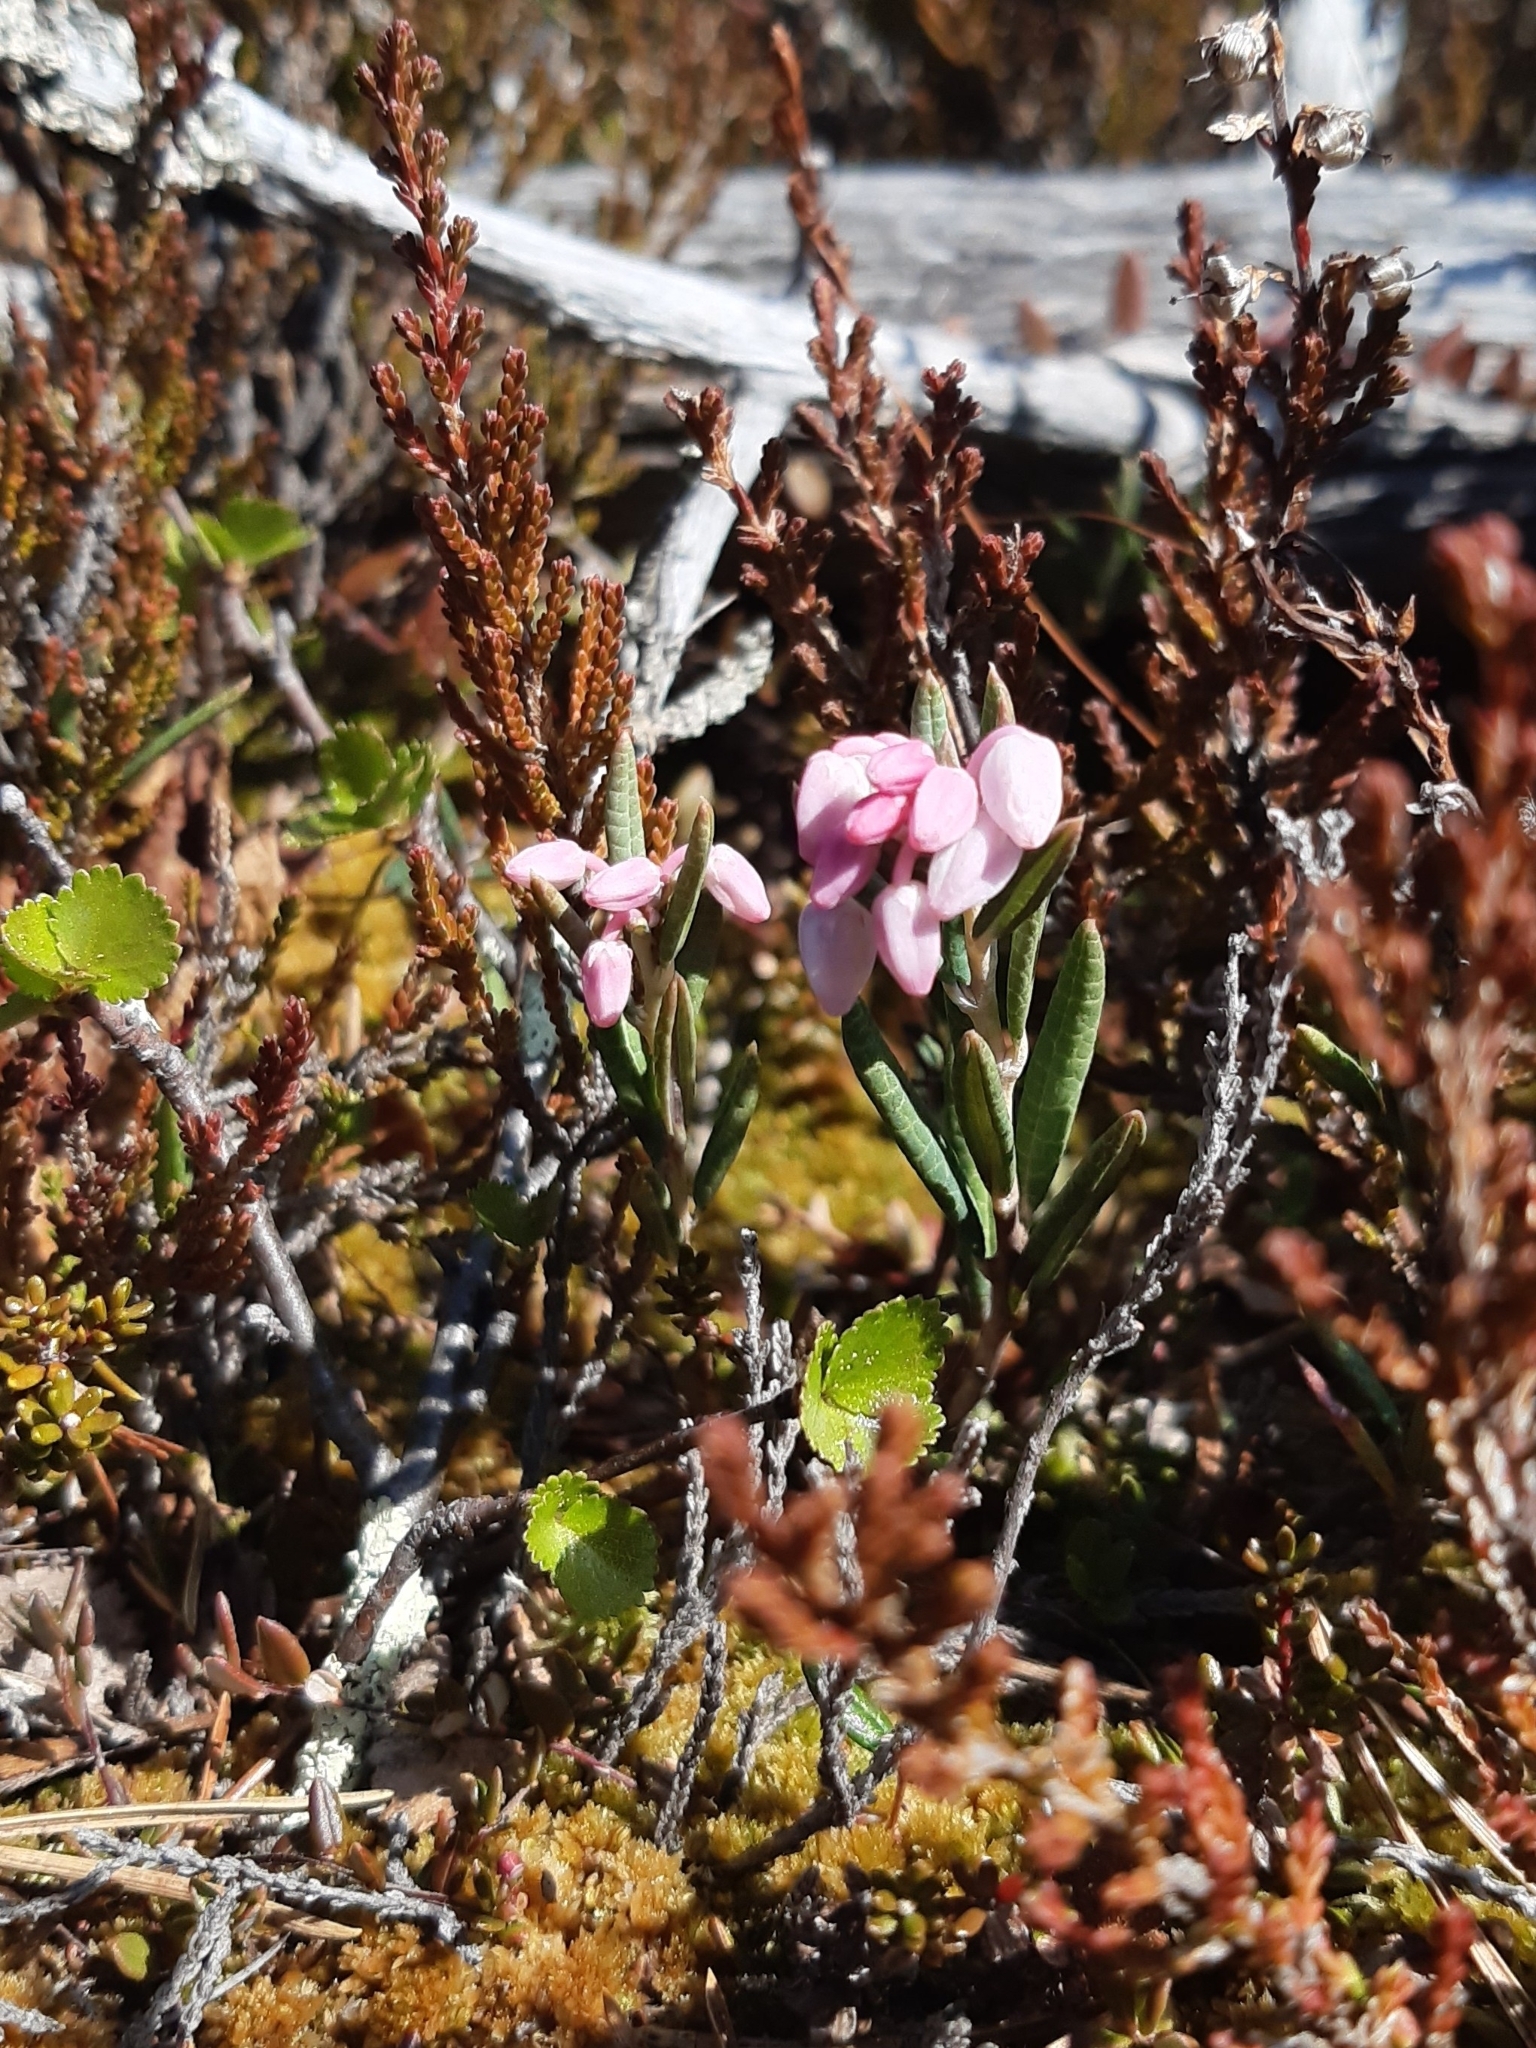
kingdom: Plantae
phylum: Tracheophyta
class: Magnoliopsida
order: Ericales
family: Ericaceae
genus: Andromeda
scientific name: Andromeda polifolia
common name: Bog-rosemary
